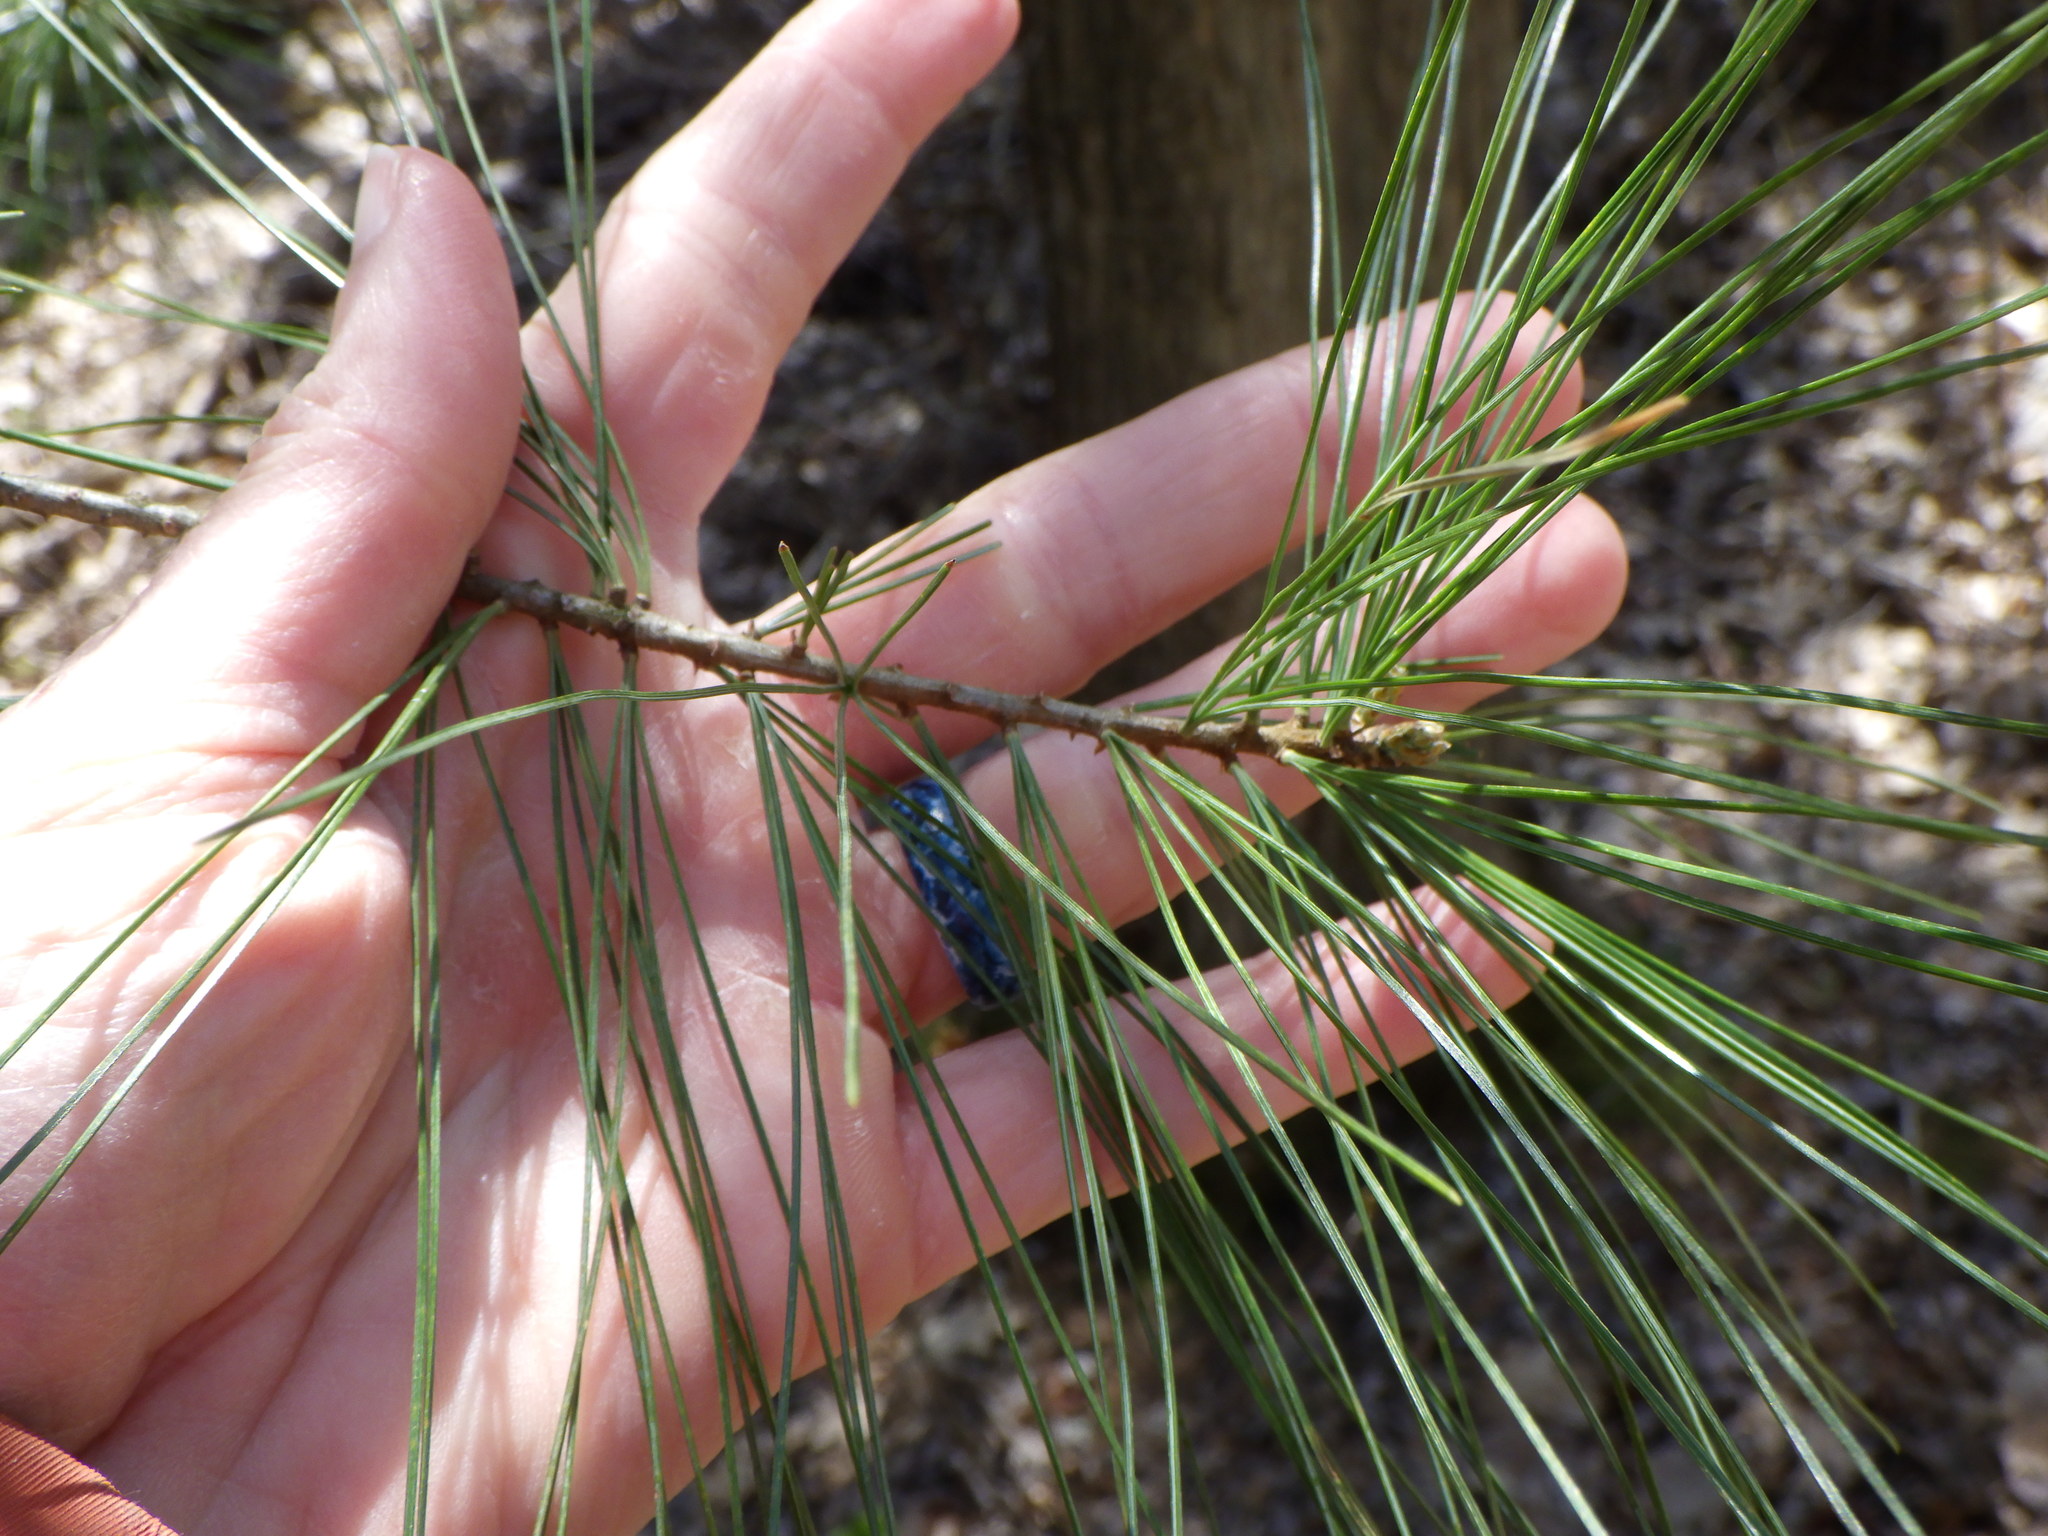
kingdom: Plantae
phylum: Tracheophyta
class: Pinopsida
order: Pinales
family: Pinaceae
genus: Pinus
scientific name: Pinus strobus
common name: Weymouth pine
